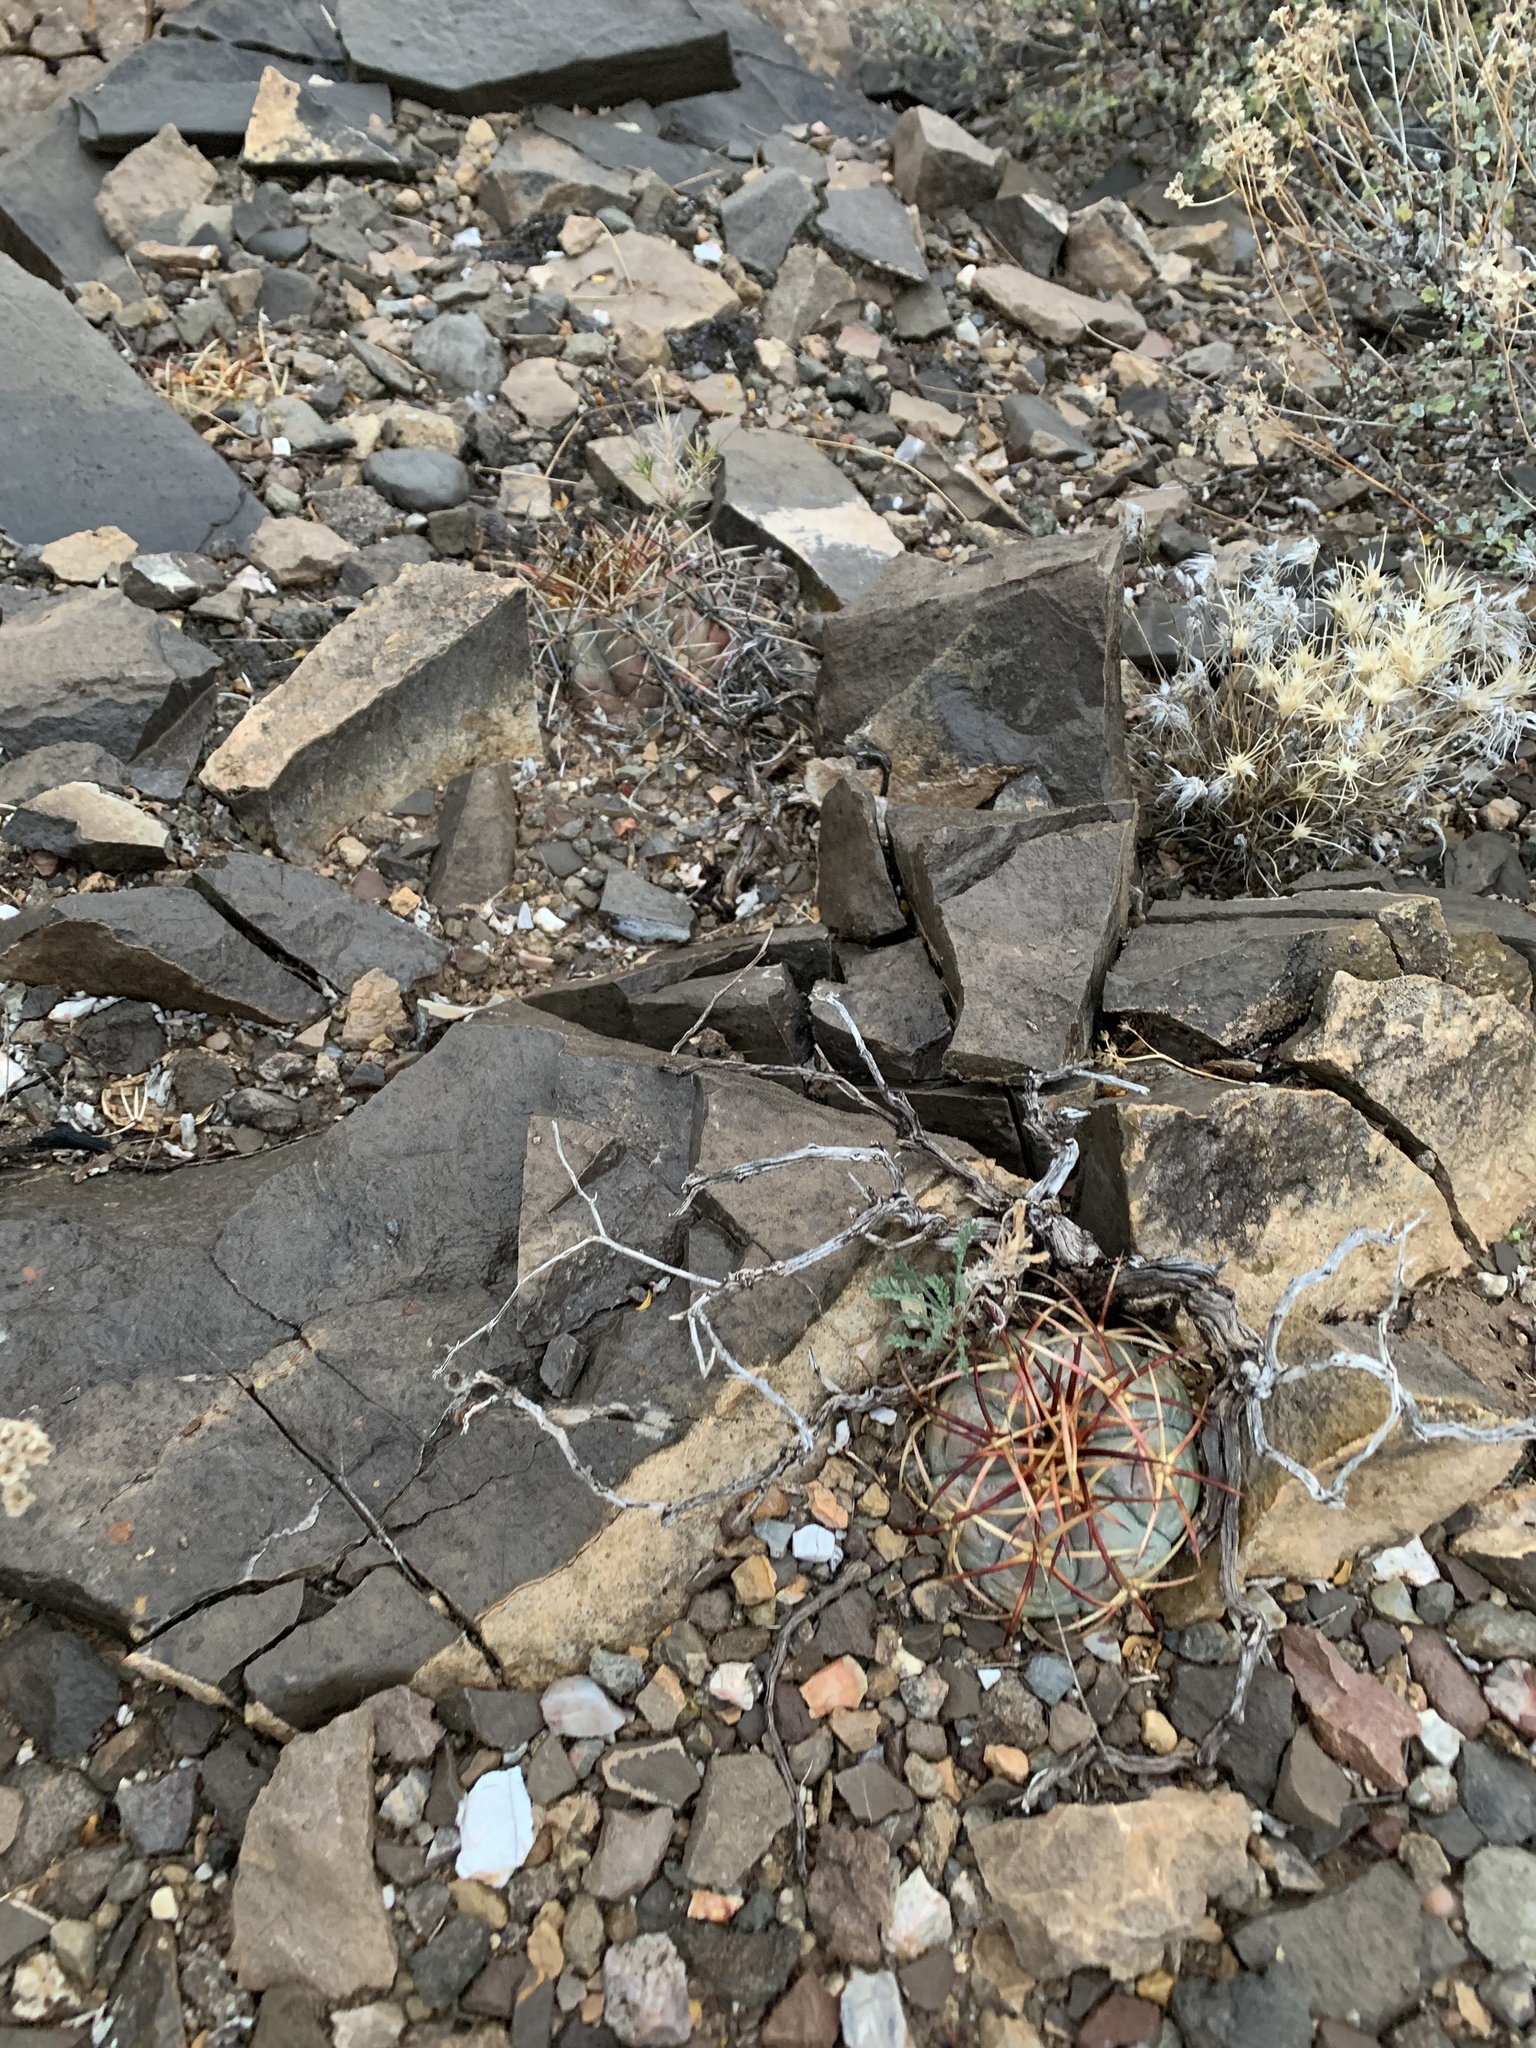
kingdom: Plantae
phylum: Tracheophyta
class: Magnoliopsida
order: Caryophyllales
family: Cactaceae
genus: Echinocactus
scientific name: Echinocactus horizonthalonius
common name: Devilshead
